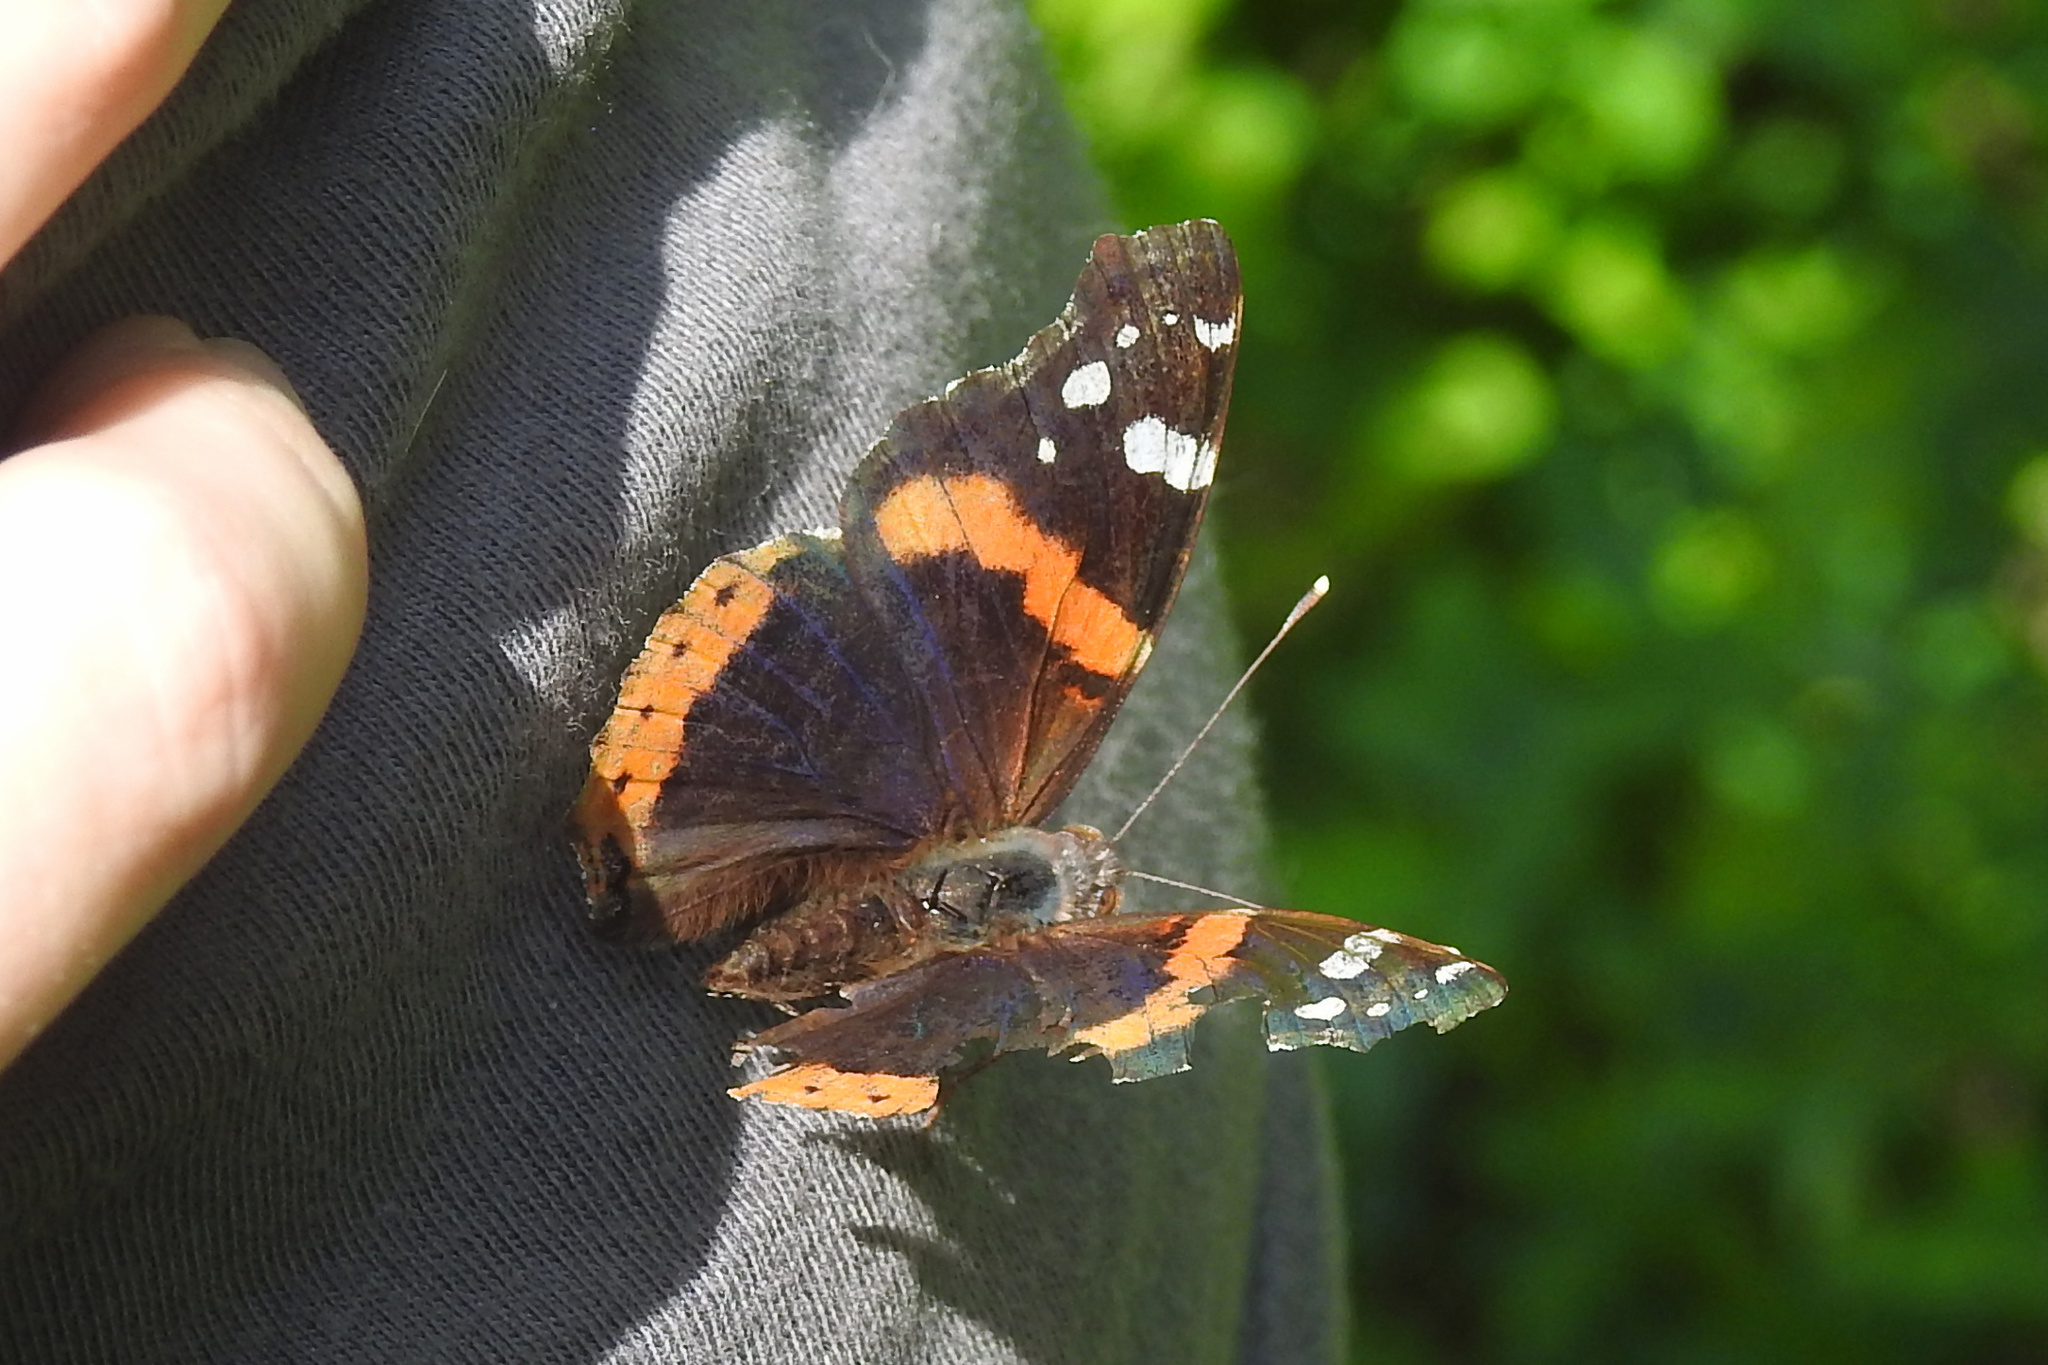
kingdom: Animalia
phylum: Arthropoda
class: Insecta
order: Lepidoptera
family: Nymphalidae
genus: Vanessa
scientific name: Vanessa atalanta
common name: Red admiral
